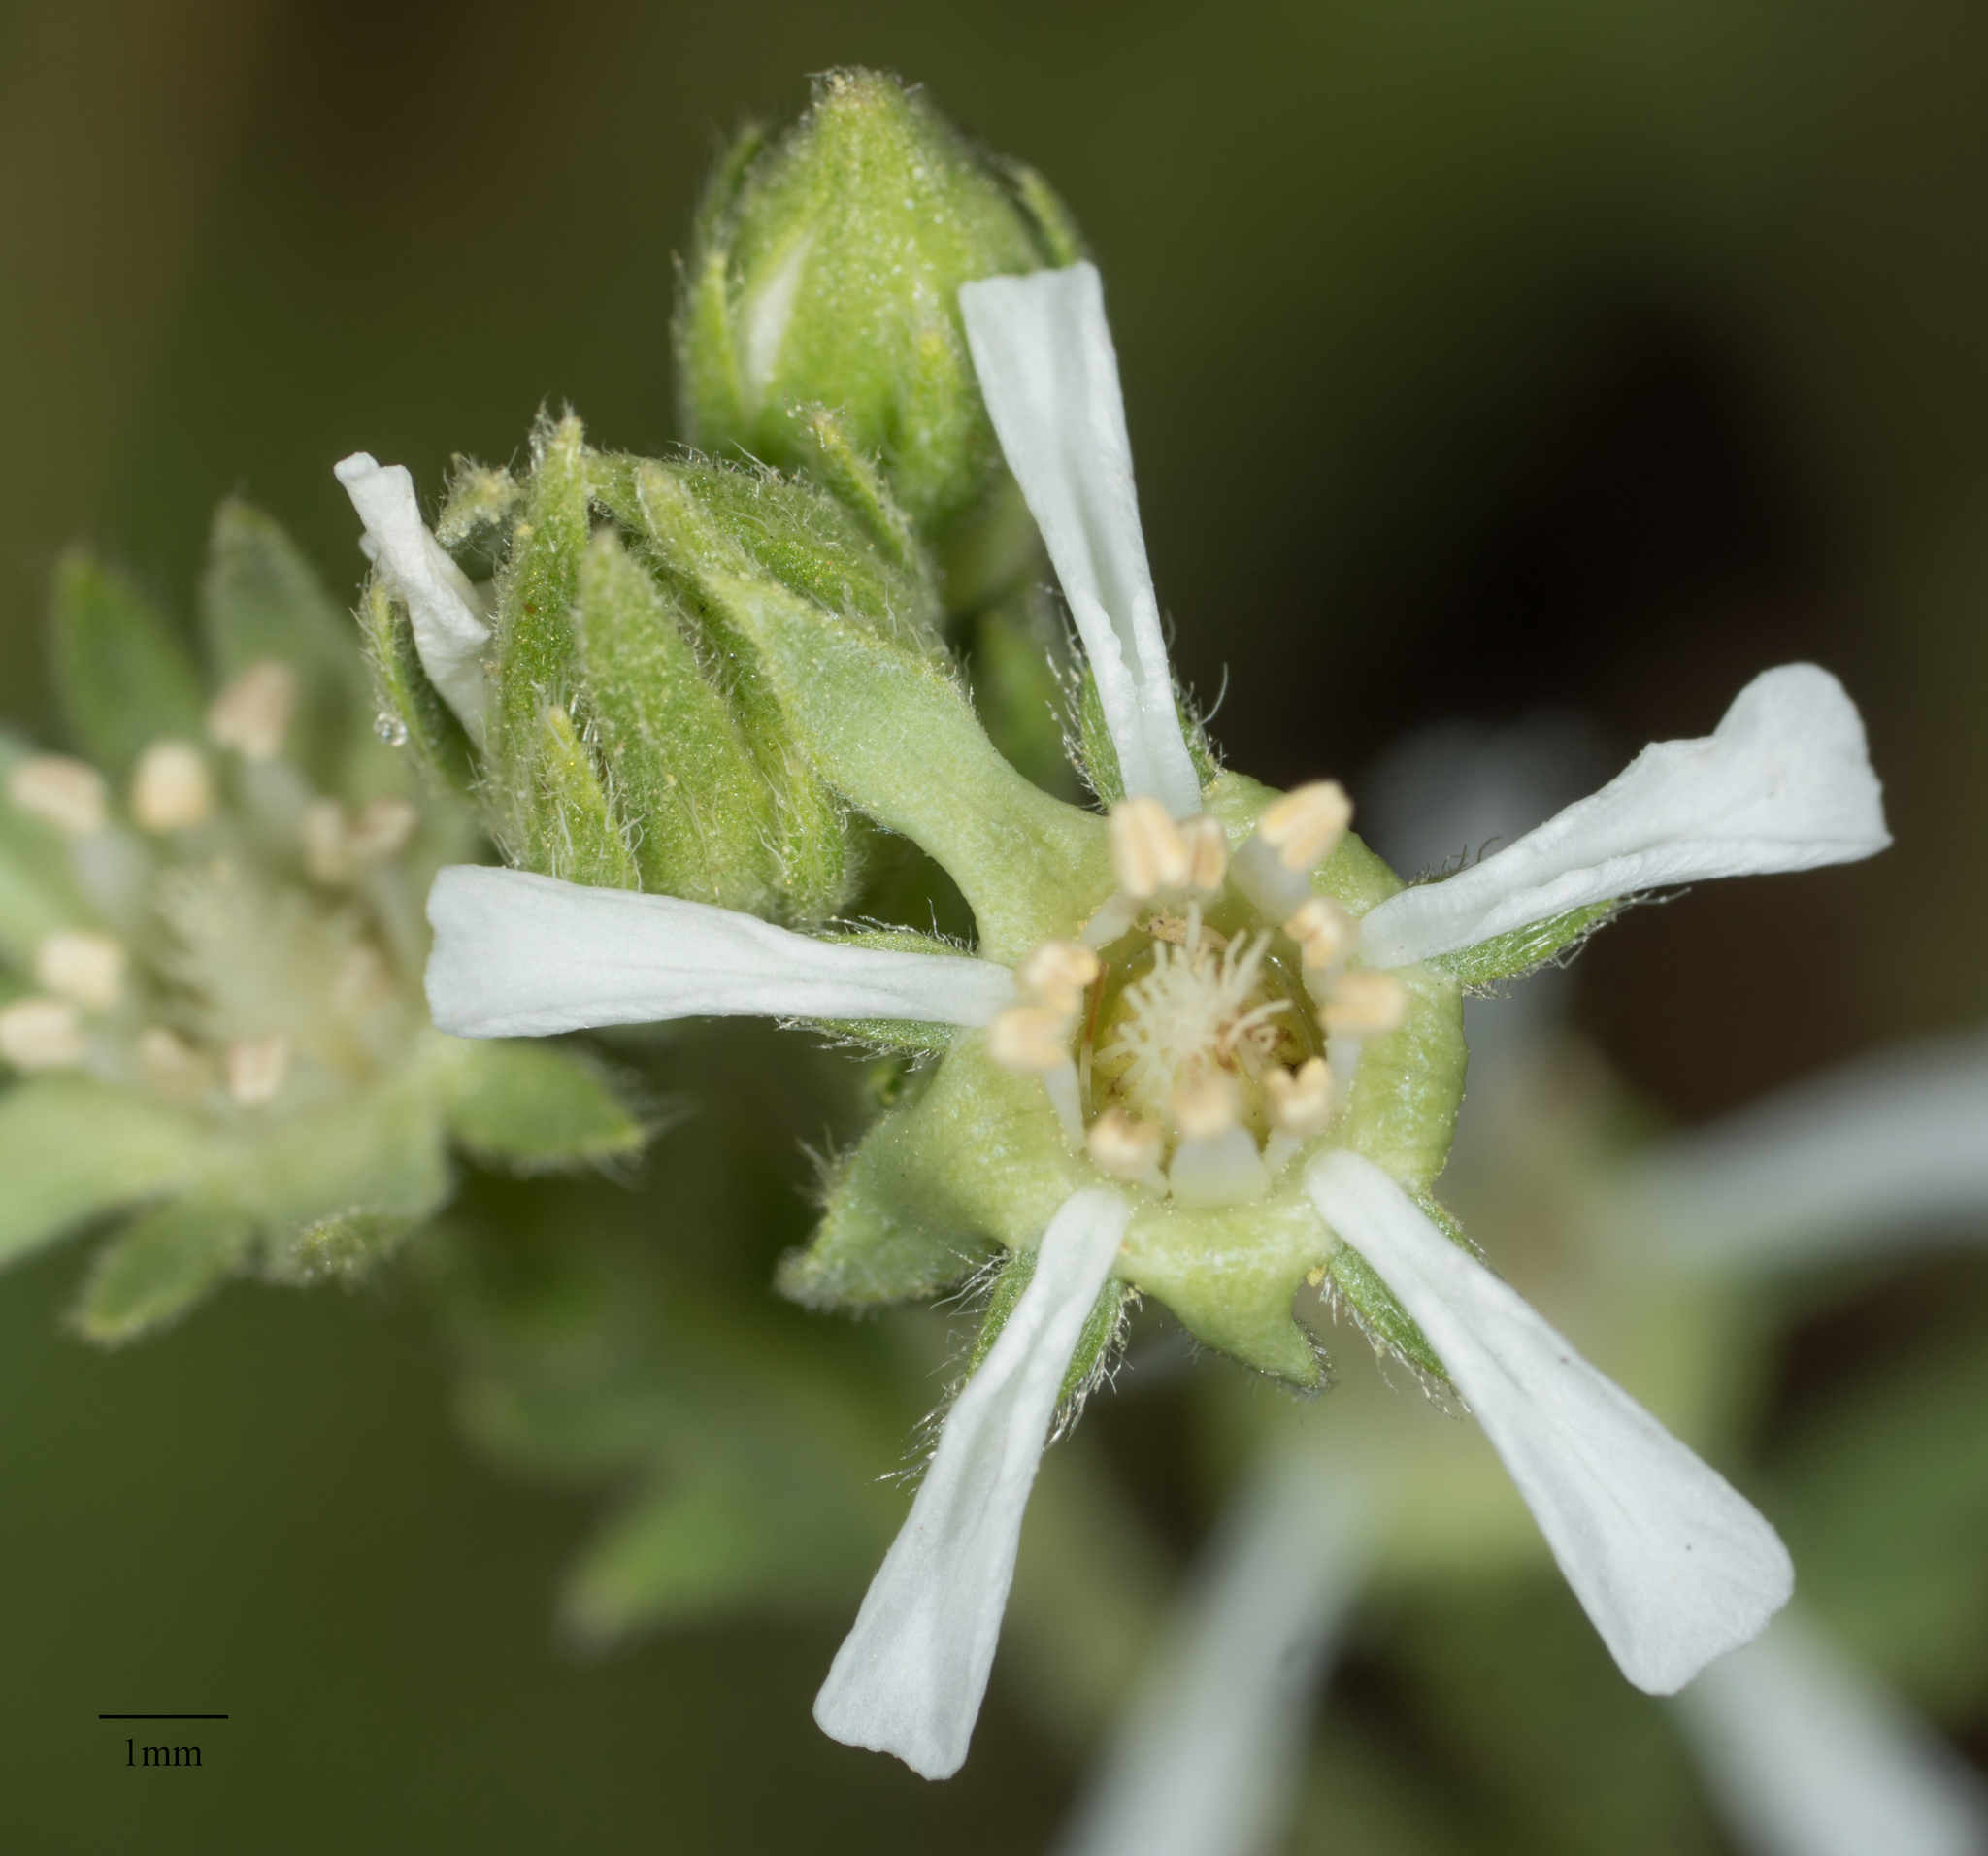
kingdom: Plantae
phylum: Tracheophyta
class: Magnoliopsida
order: Rosales
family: Rosaceae
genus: Potentilla
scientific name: Potentilla rydbergii
